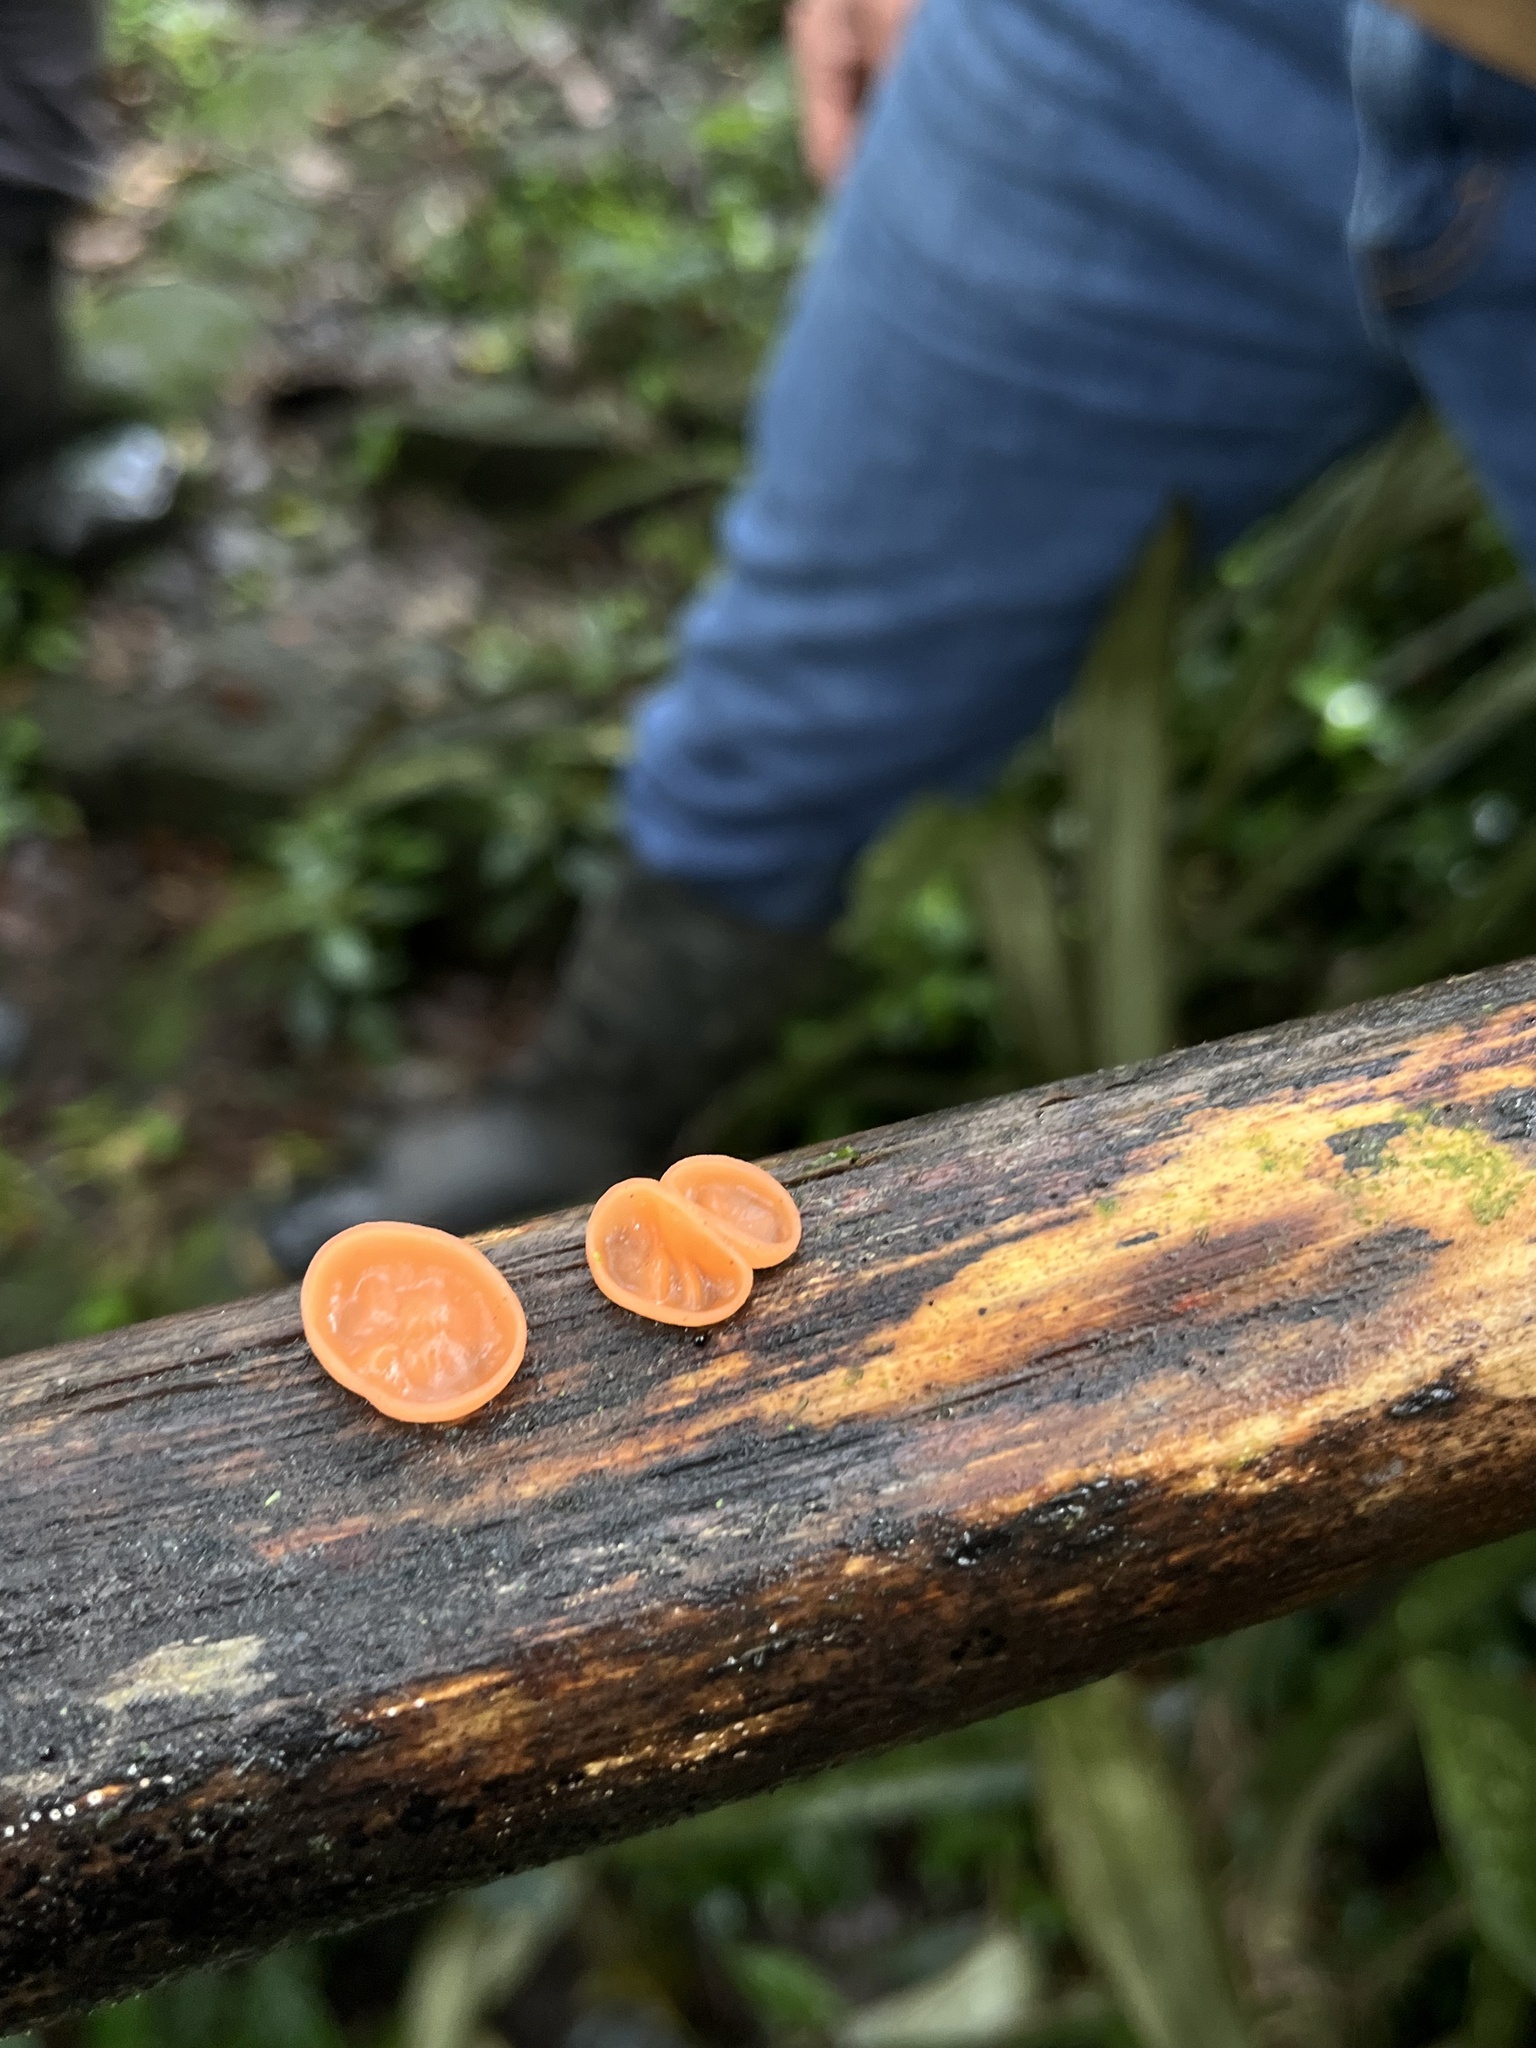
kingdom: Fungi
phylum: Ascomycota
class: Pezizomycetes
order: Pezizales
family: Sarcoscyphaceae
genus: Cookeina
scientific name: Cookeina venezuelae
